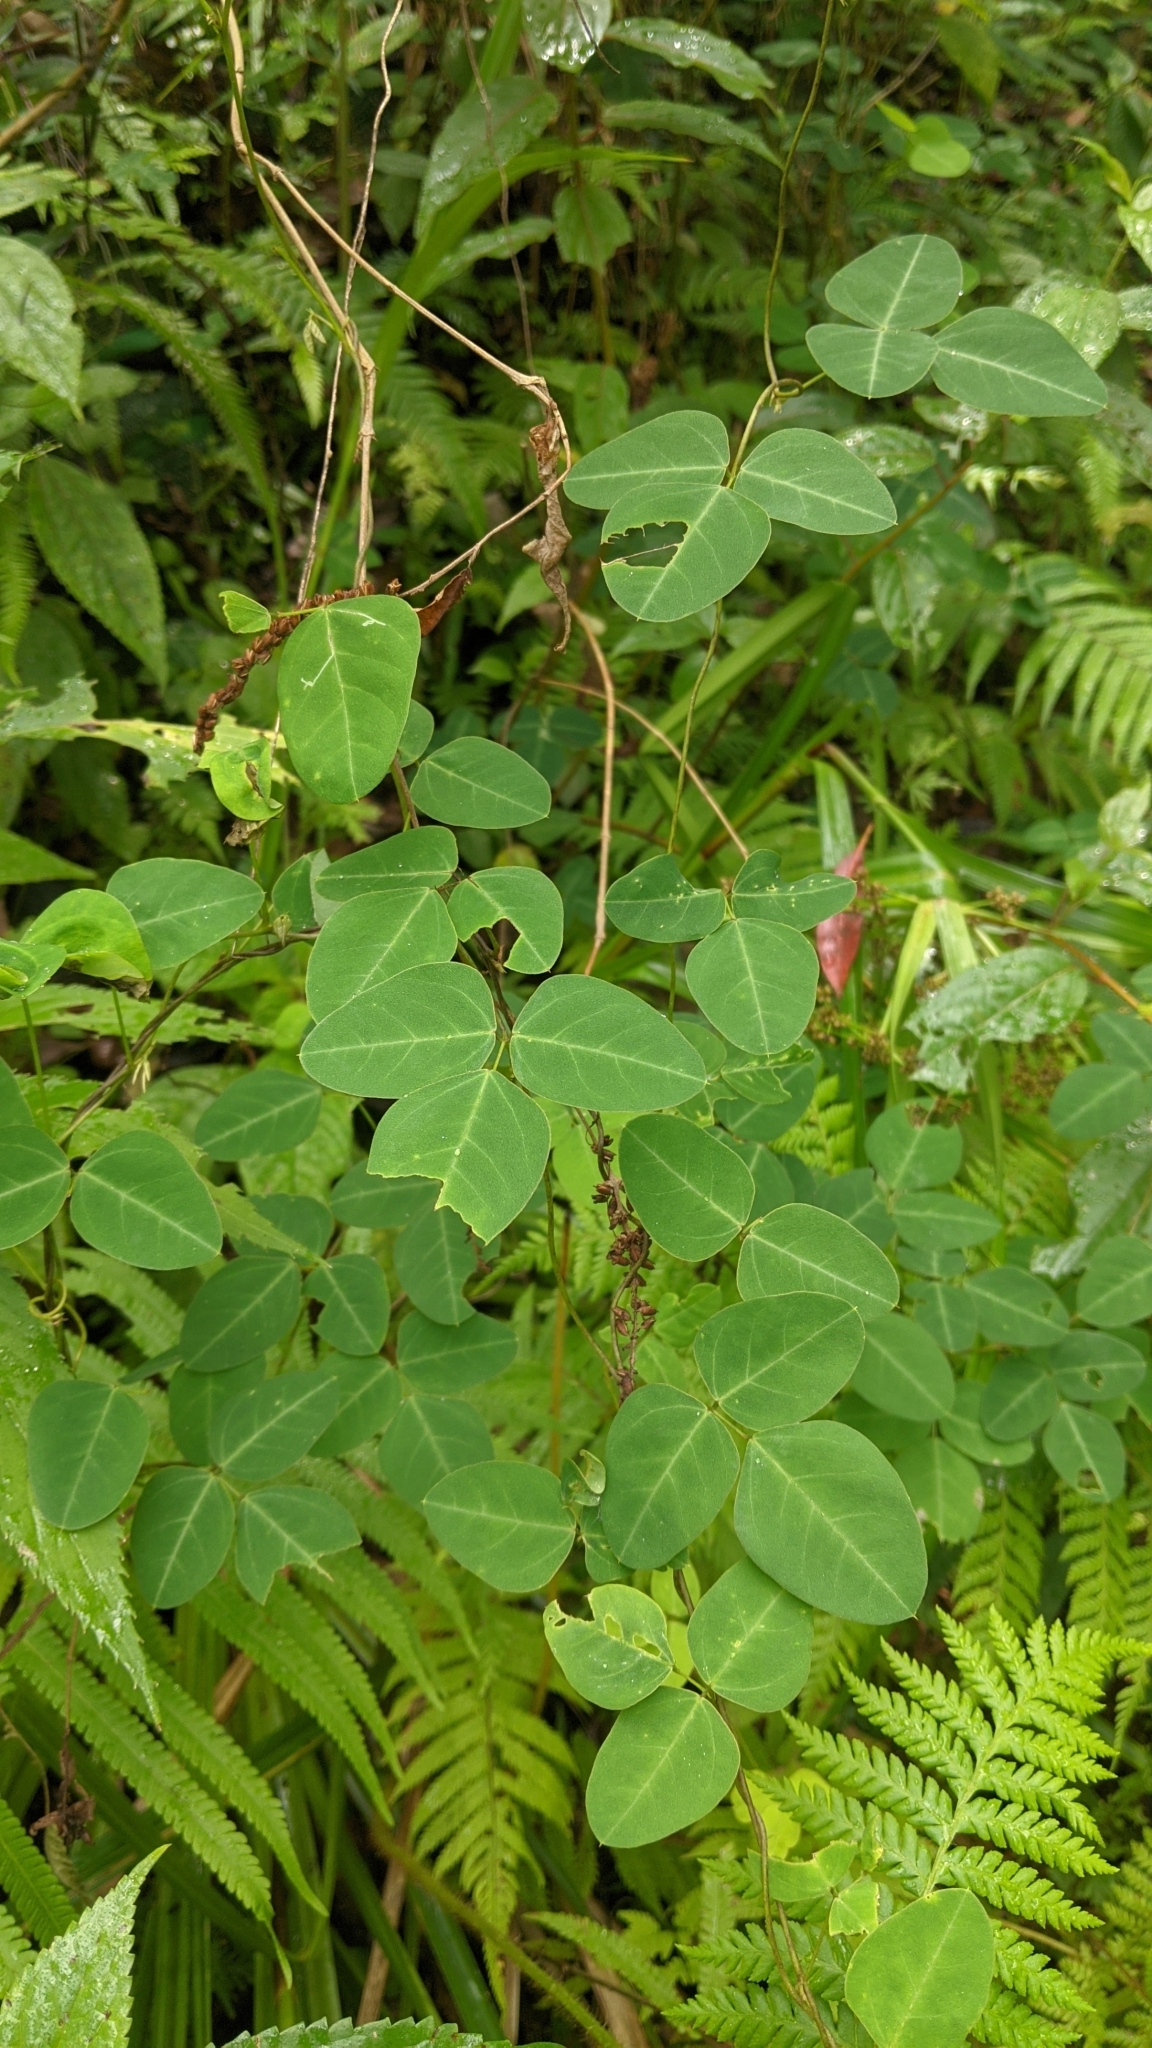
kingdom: Plantae
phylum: Tracheophyta
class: Magnoliopsida
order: Fabales
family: Fabaceae
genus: Dumasia
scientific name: Dumasia villosa
